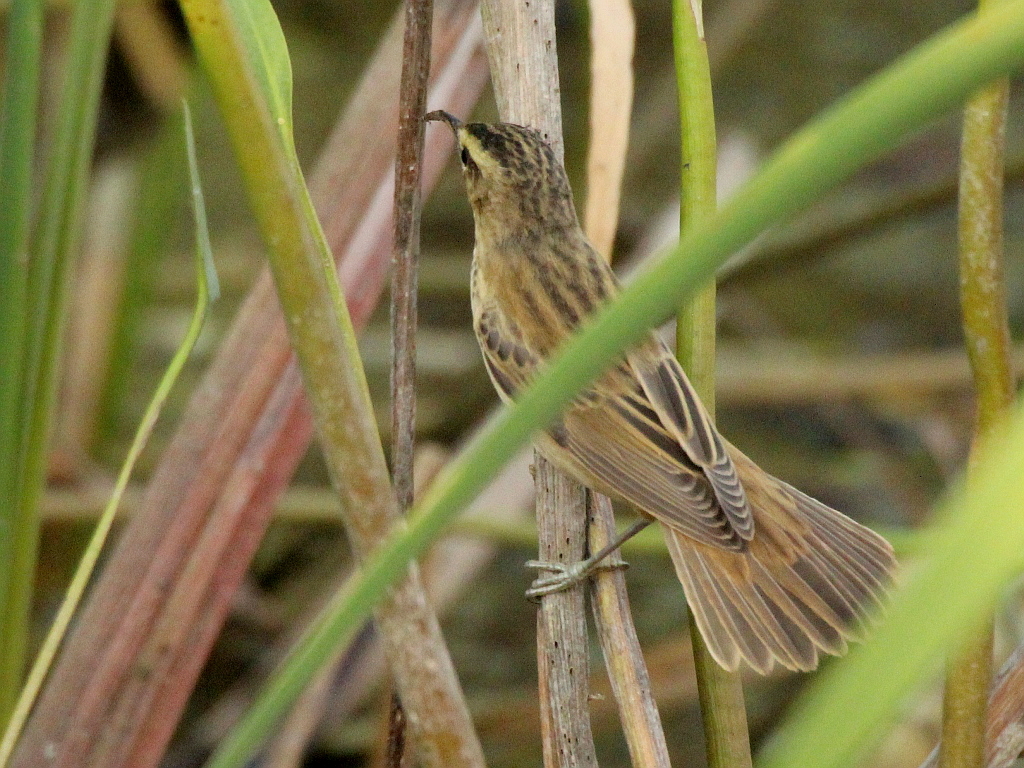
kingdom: Animalia
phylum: Chordata
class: Aves
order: Passeriformes
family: Acrocephalidae
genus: Acrocephalus
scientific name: Acrocephalus schoenobaenus
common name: Sedge warbler
